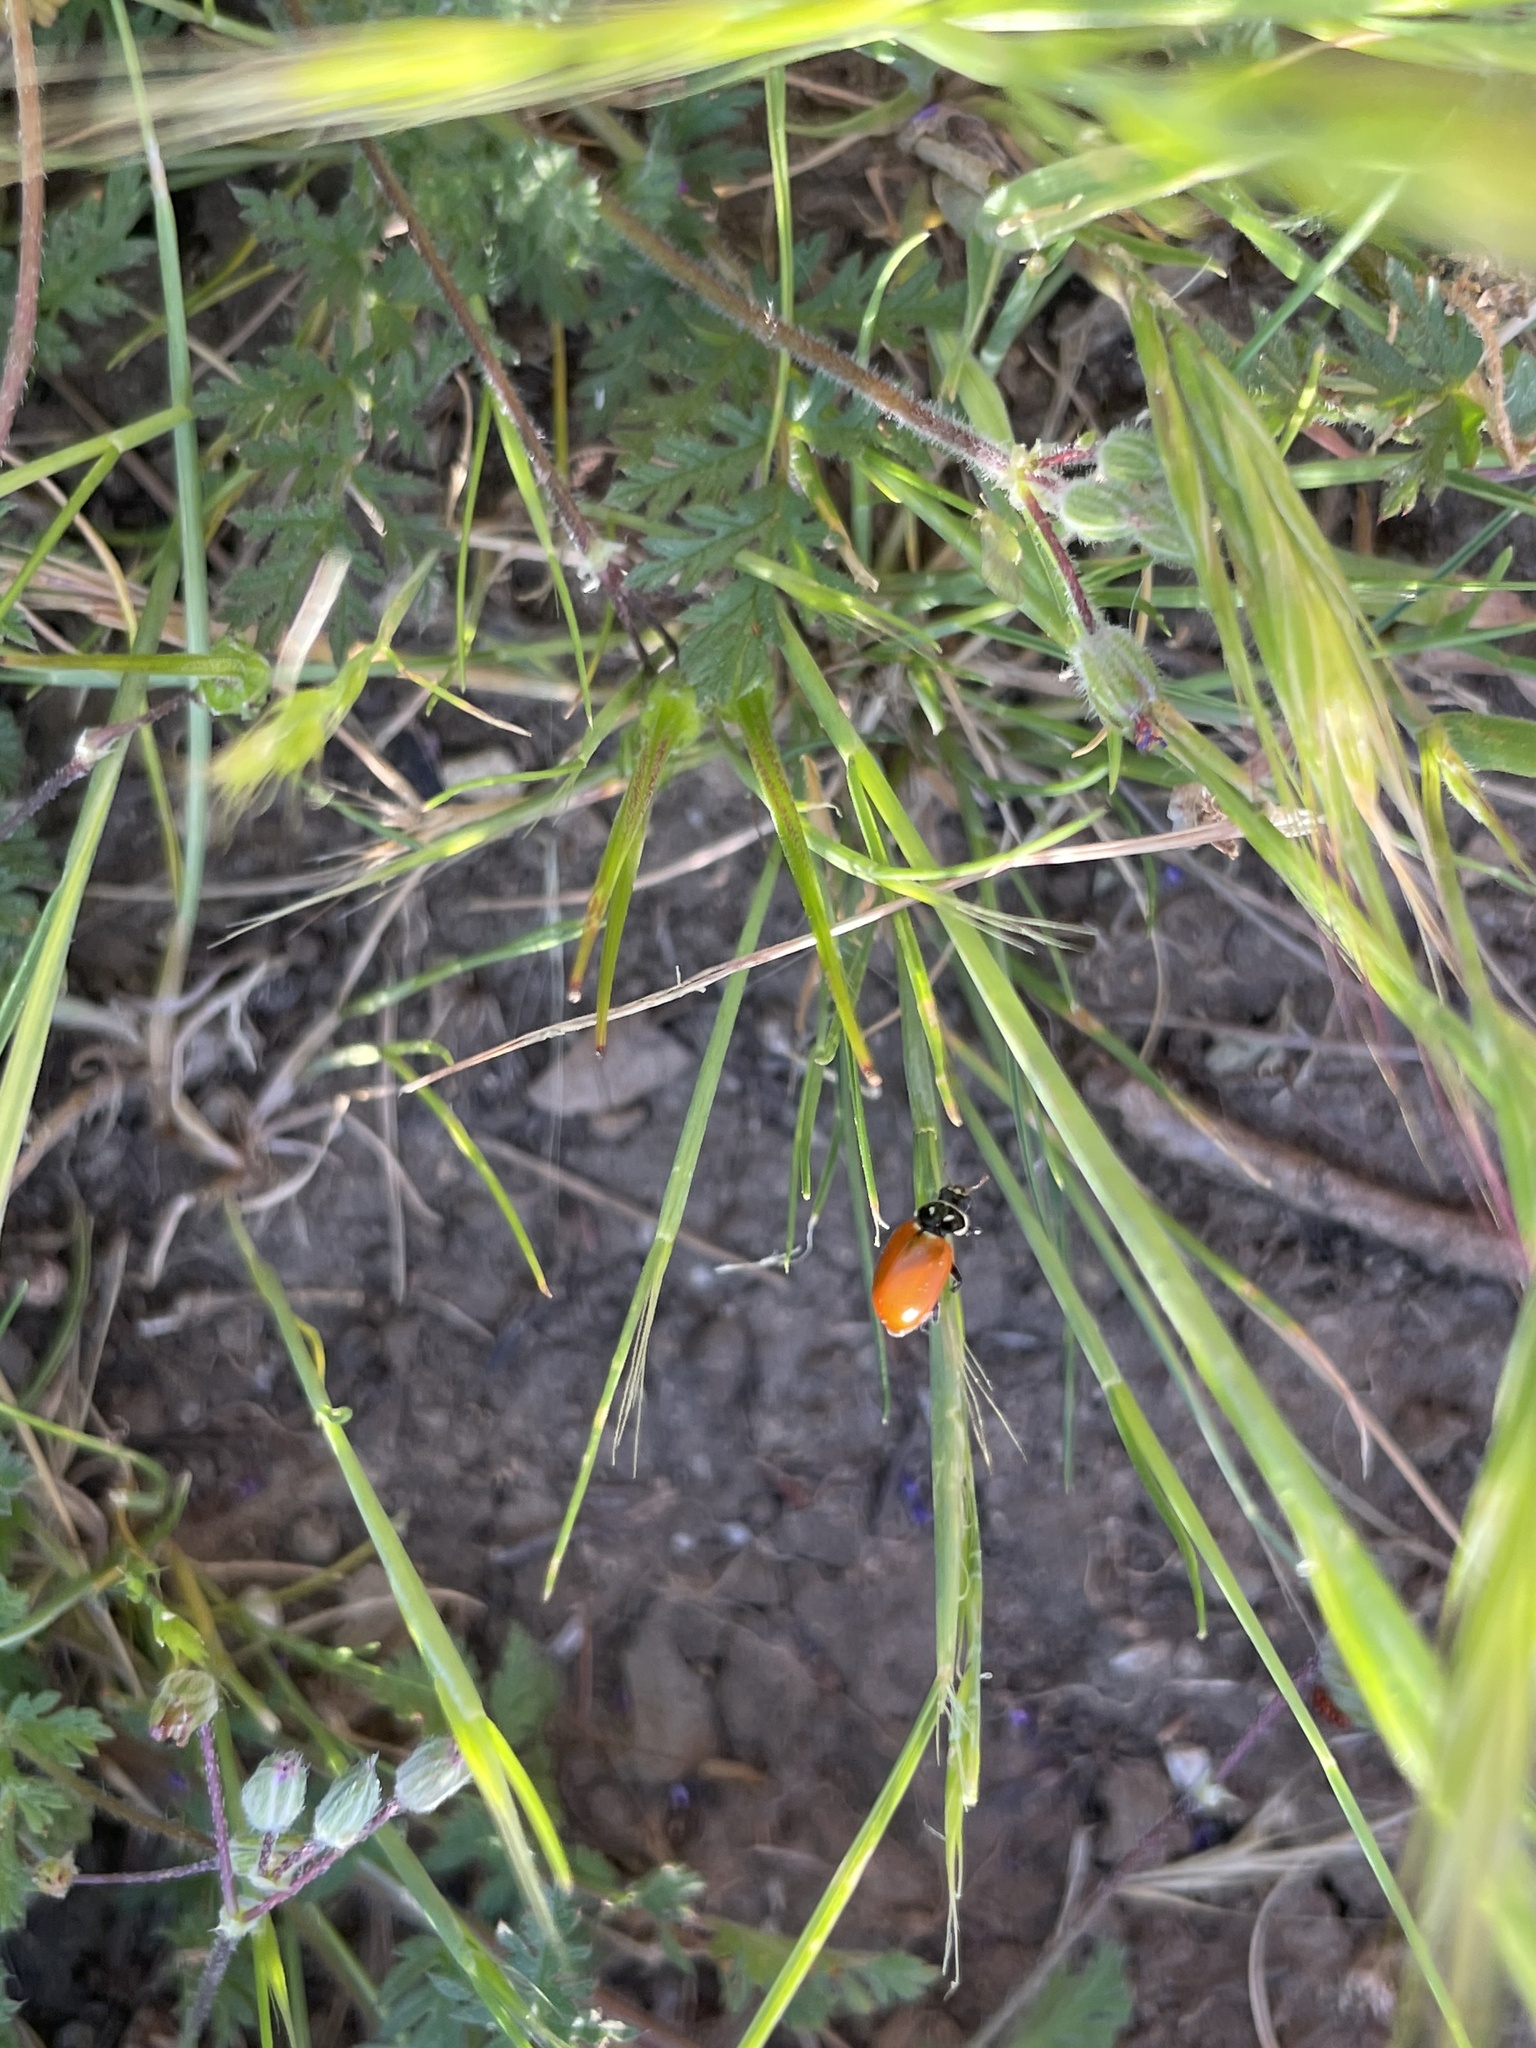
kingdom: Animalia
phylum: Arthropoda
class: Insecta
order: Coleoptera
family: Coccinellidae
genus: Hippodamia
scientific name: Hippodamia convergens
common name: Convergent lady beetle
